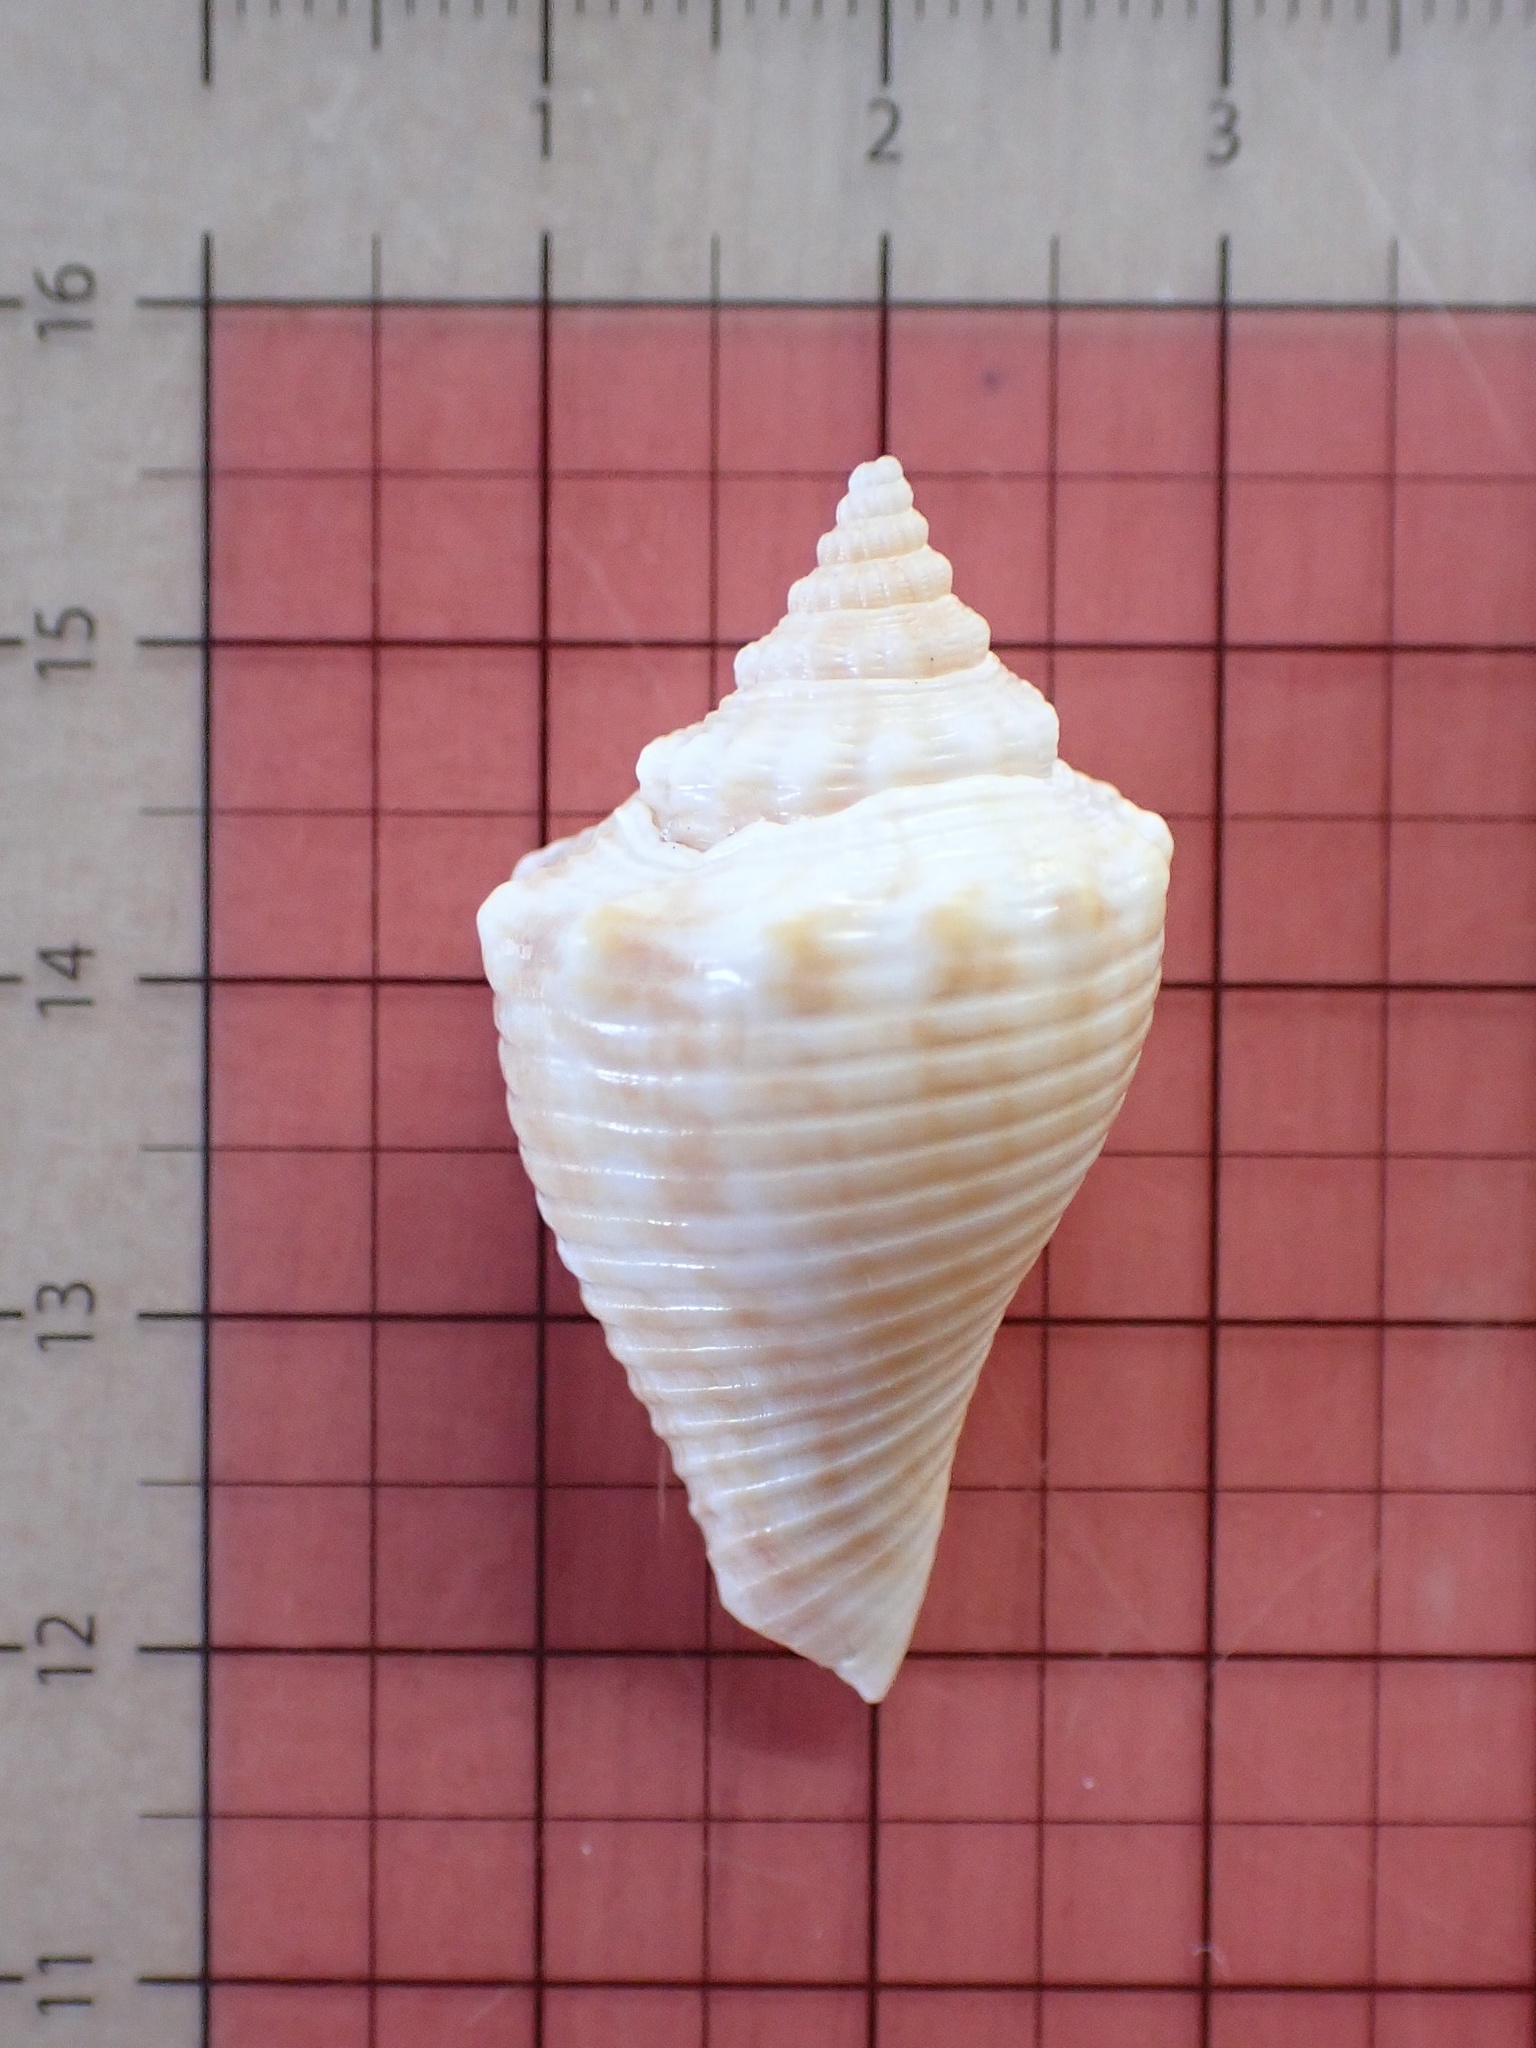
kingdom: Animalia
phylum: Mollusca
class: Gastropoda
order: Littorinimorpha
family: Strombidae
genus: Strombus
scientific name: Strombus alatus
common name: Florida fighting conch
